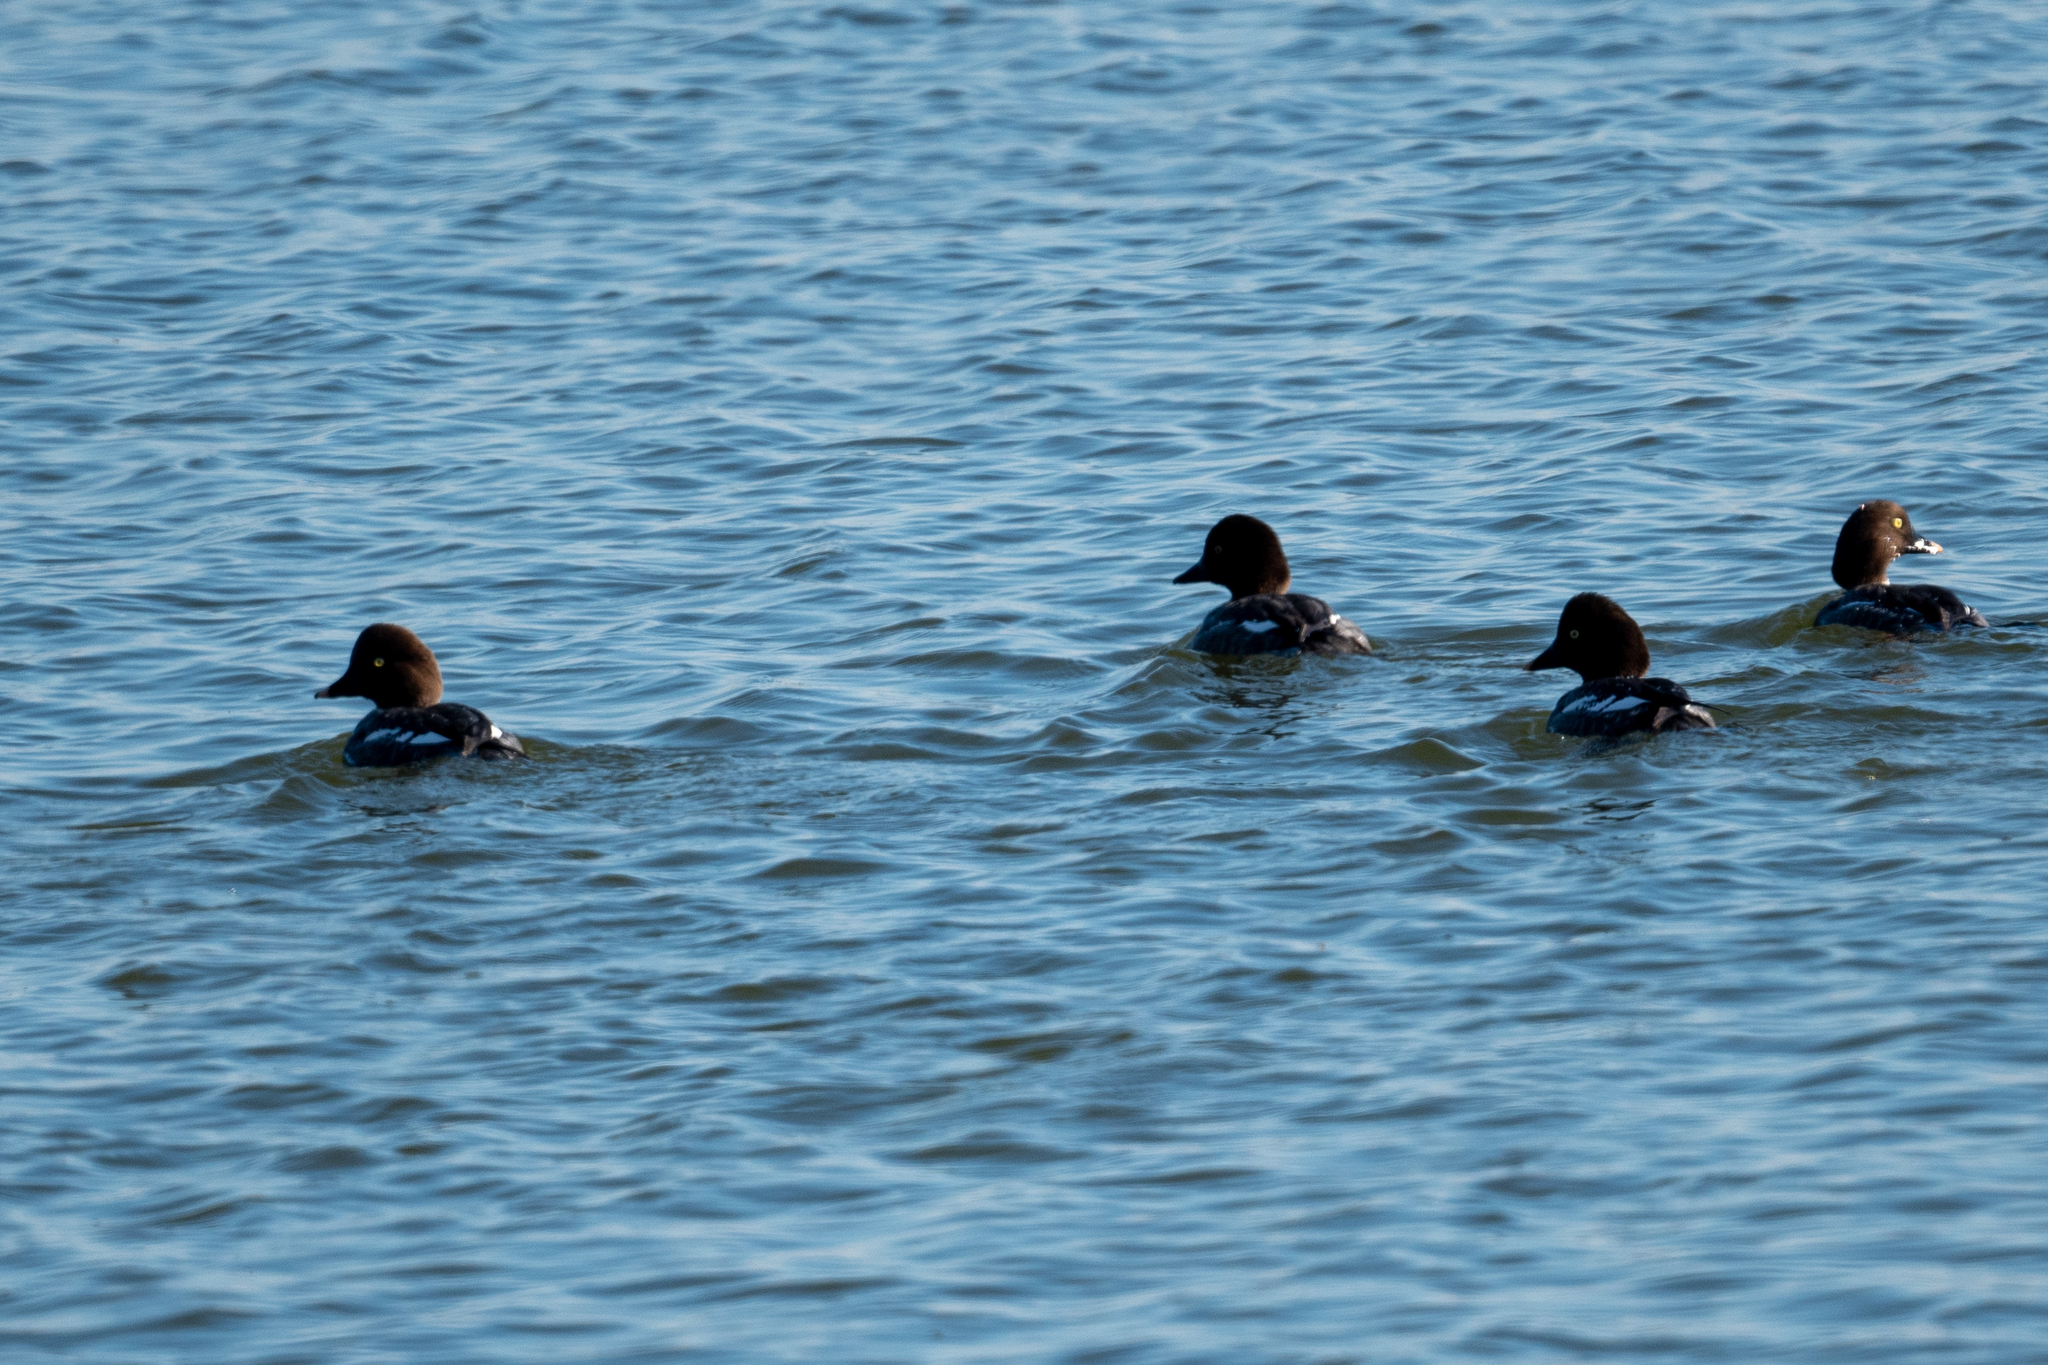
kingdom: Animalia
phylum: Chordata
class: Aves
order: Anseriformes
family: Anatidae
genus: Bucephala
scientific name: Bucephala clangula
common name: Common goldeneye
